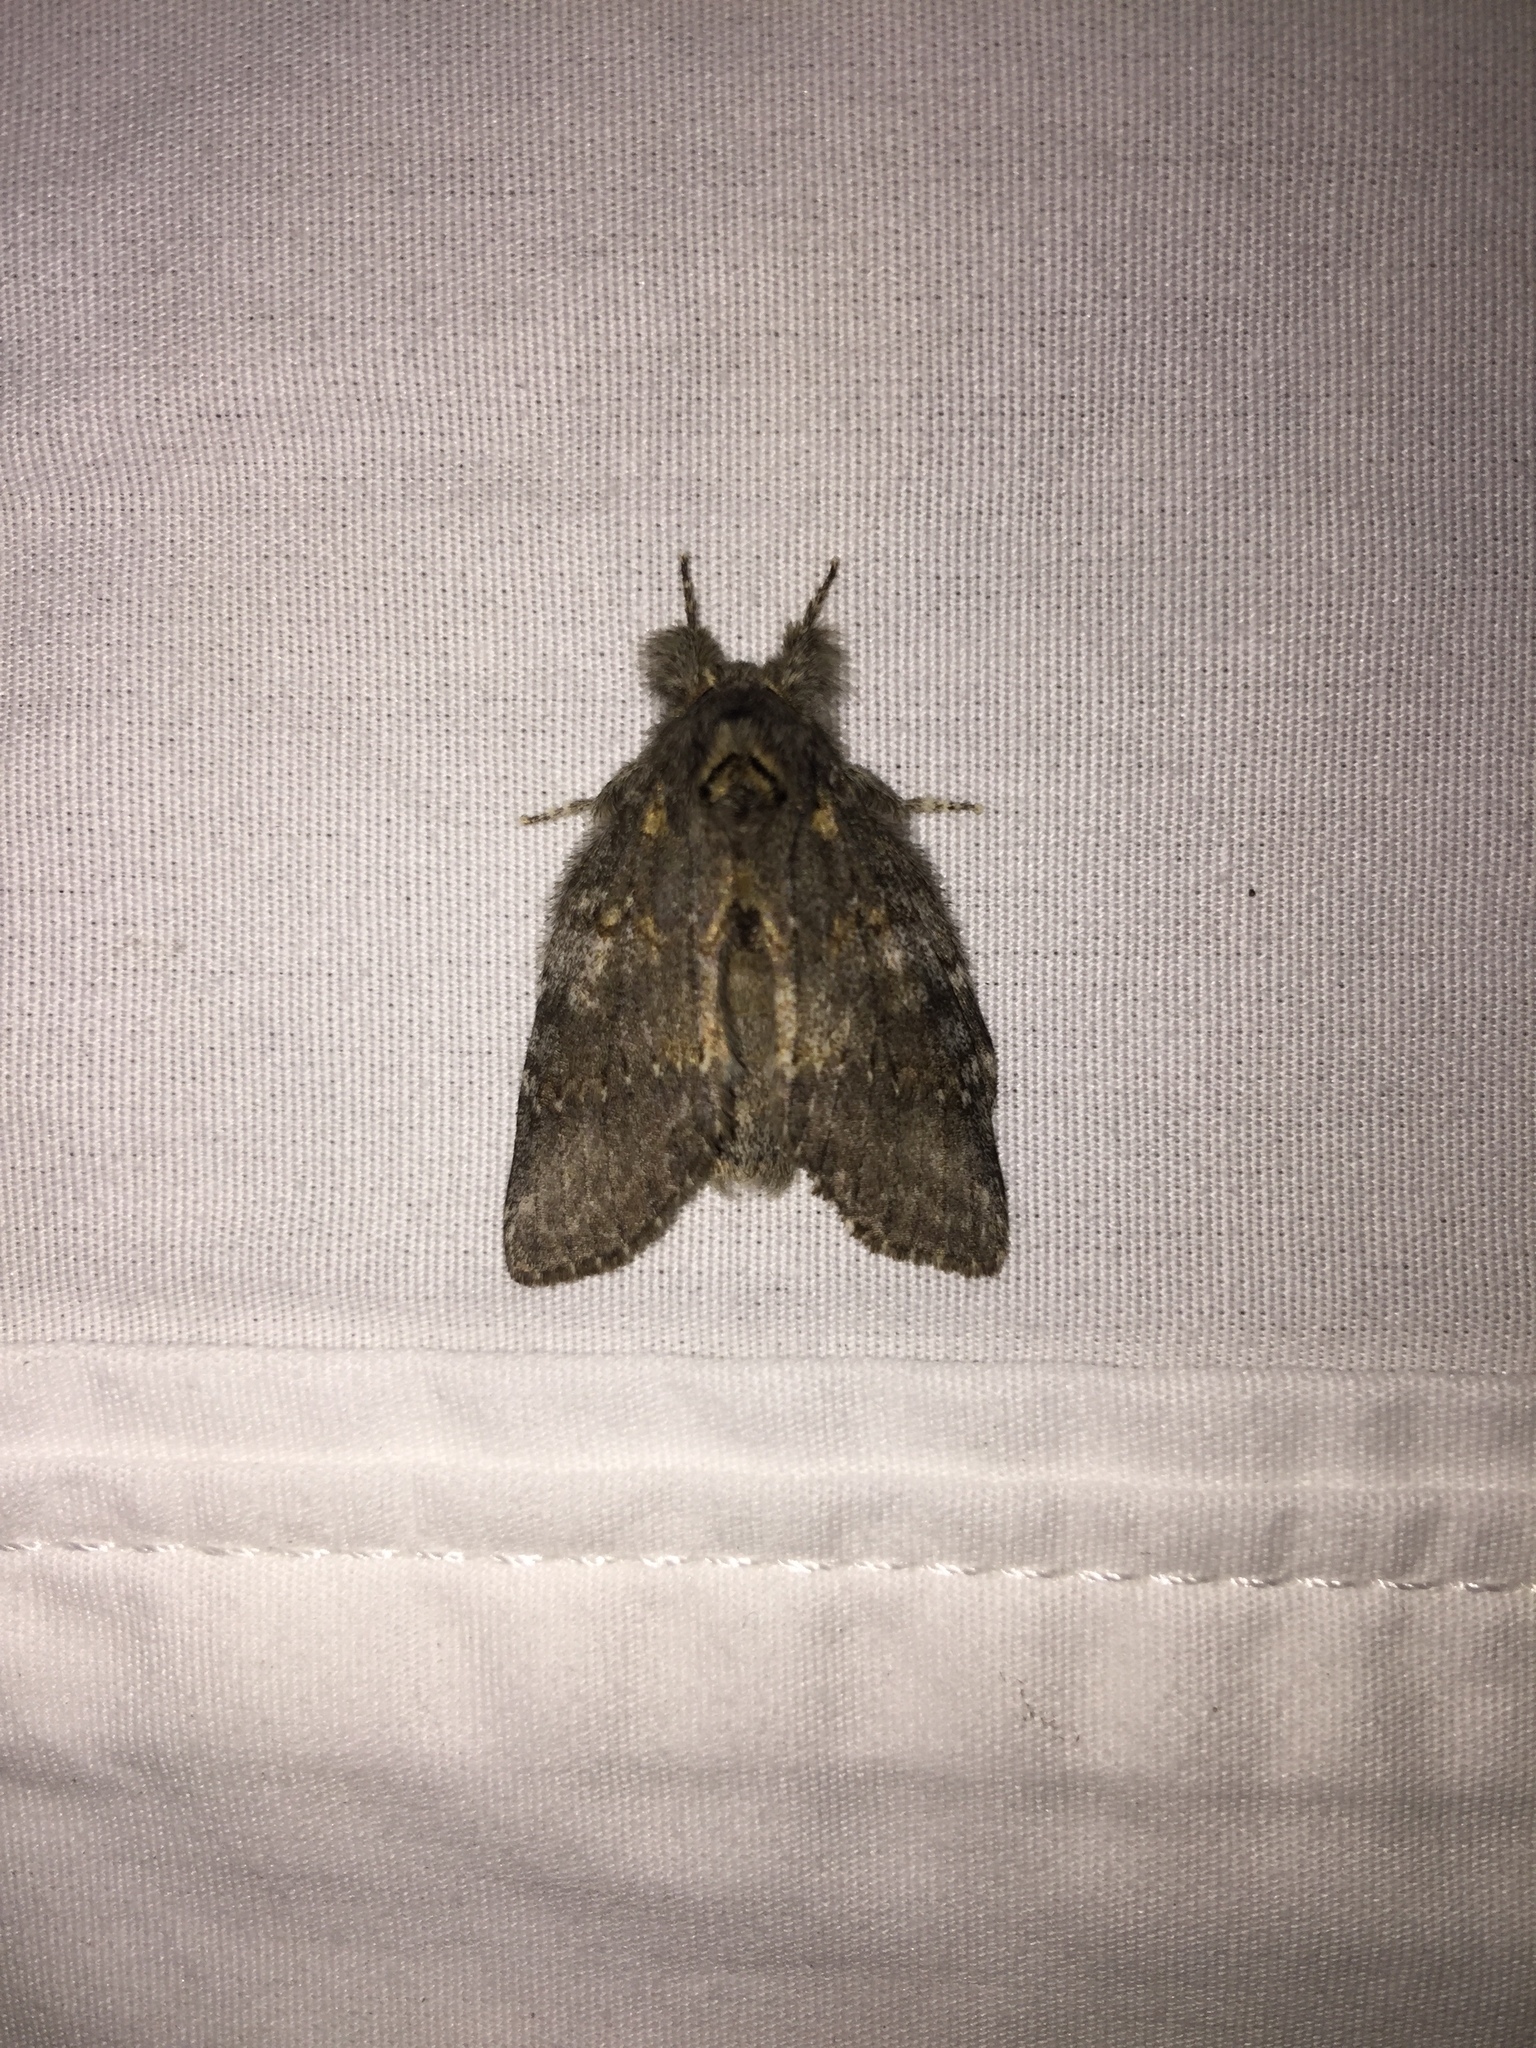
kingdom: Animalia
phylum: Arthropoda
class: Insecta
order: Lepidoptera
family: Notodontidae
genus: Peridea
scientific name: Peridea angulosa
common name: Angulose prominent
